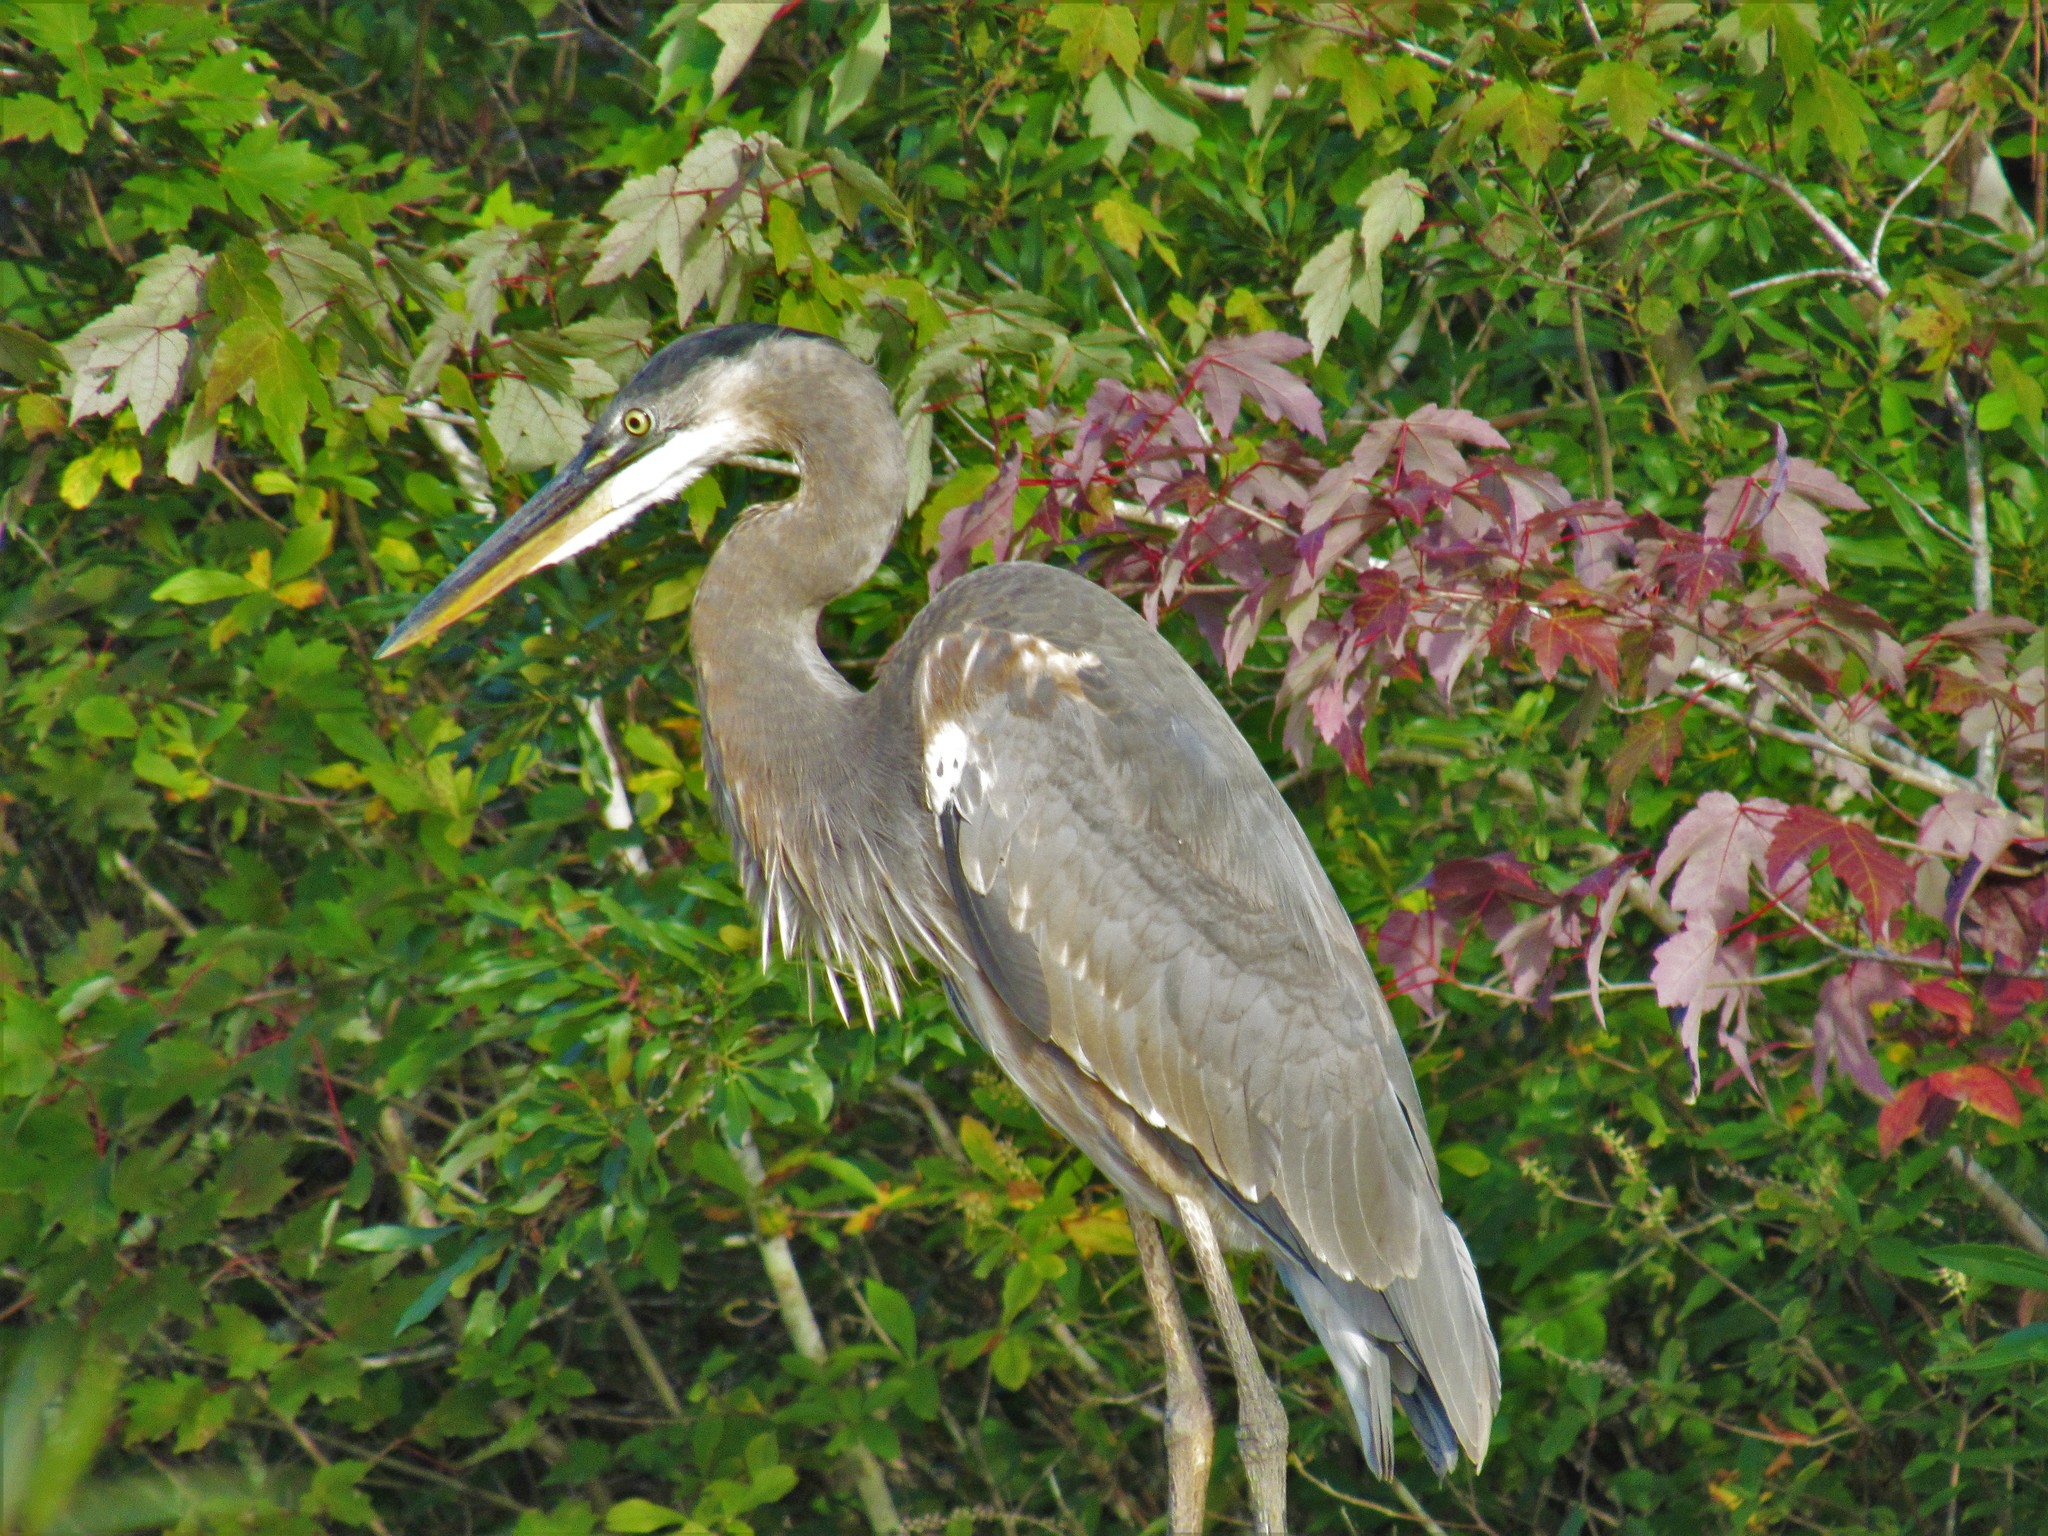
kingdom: Animalia
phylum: Chordata
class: Aves
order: Pelecaniformes
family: Ardeidae
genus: Ardea
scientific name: Ardea herodias
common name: Great blue heron
